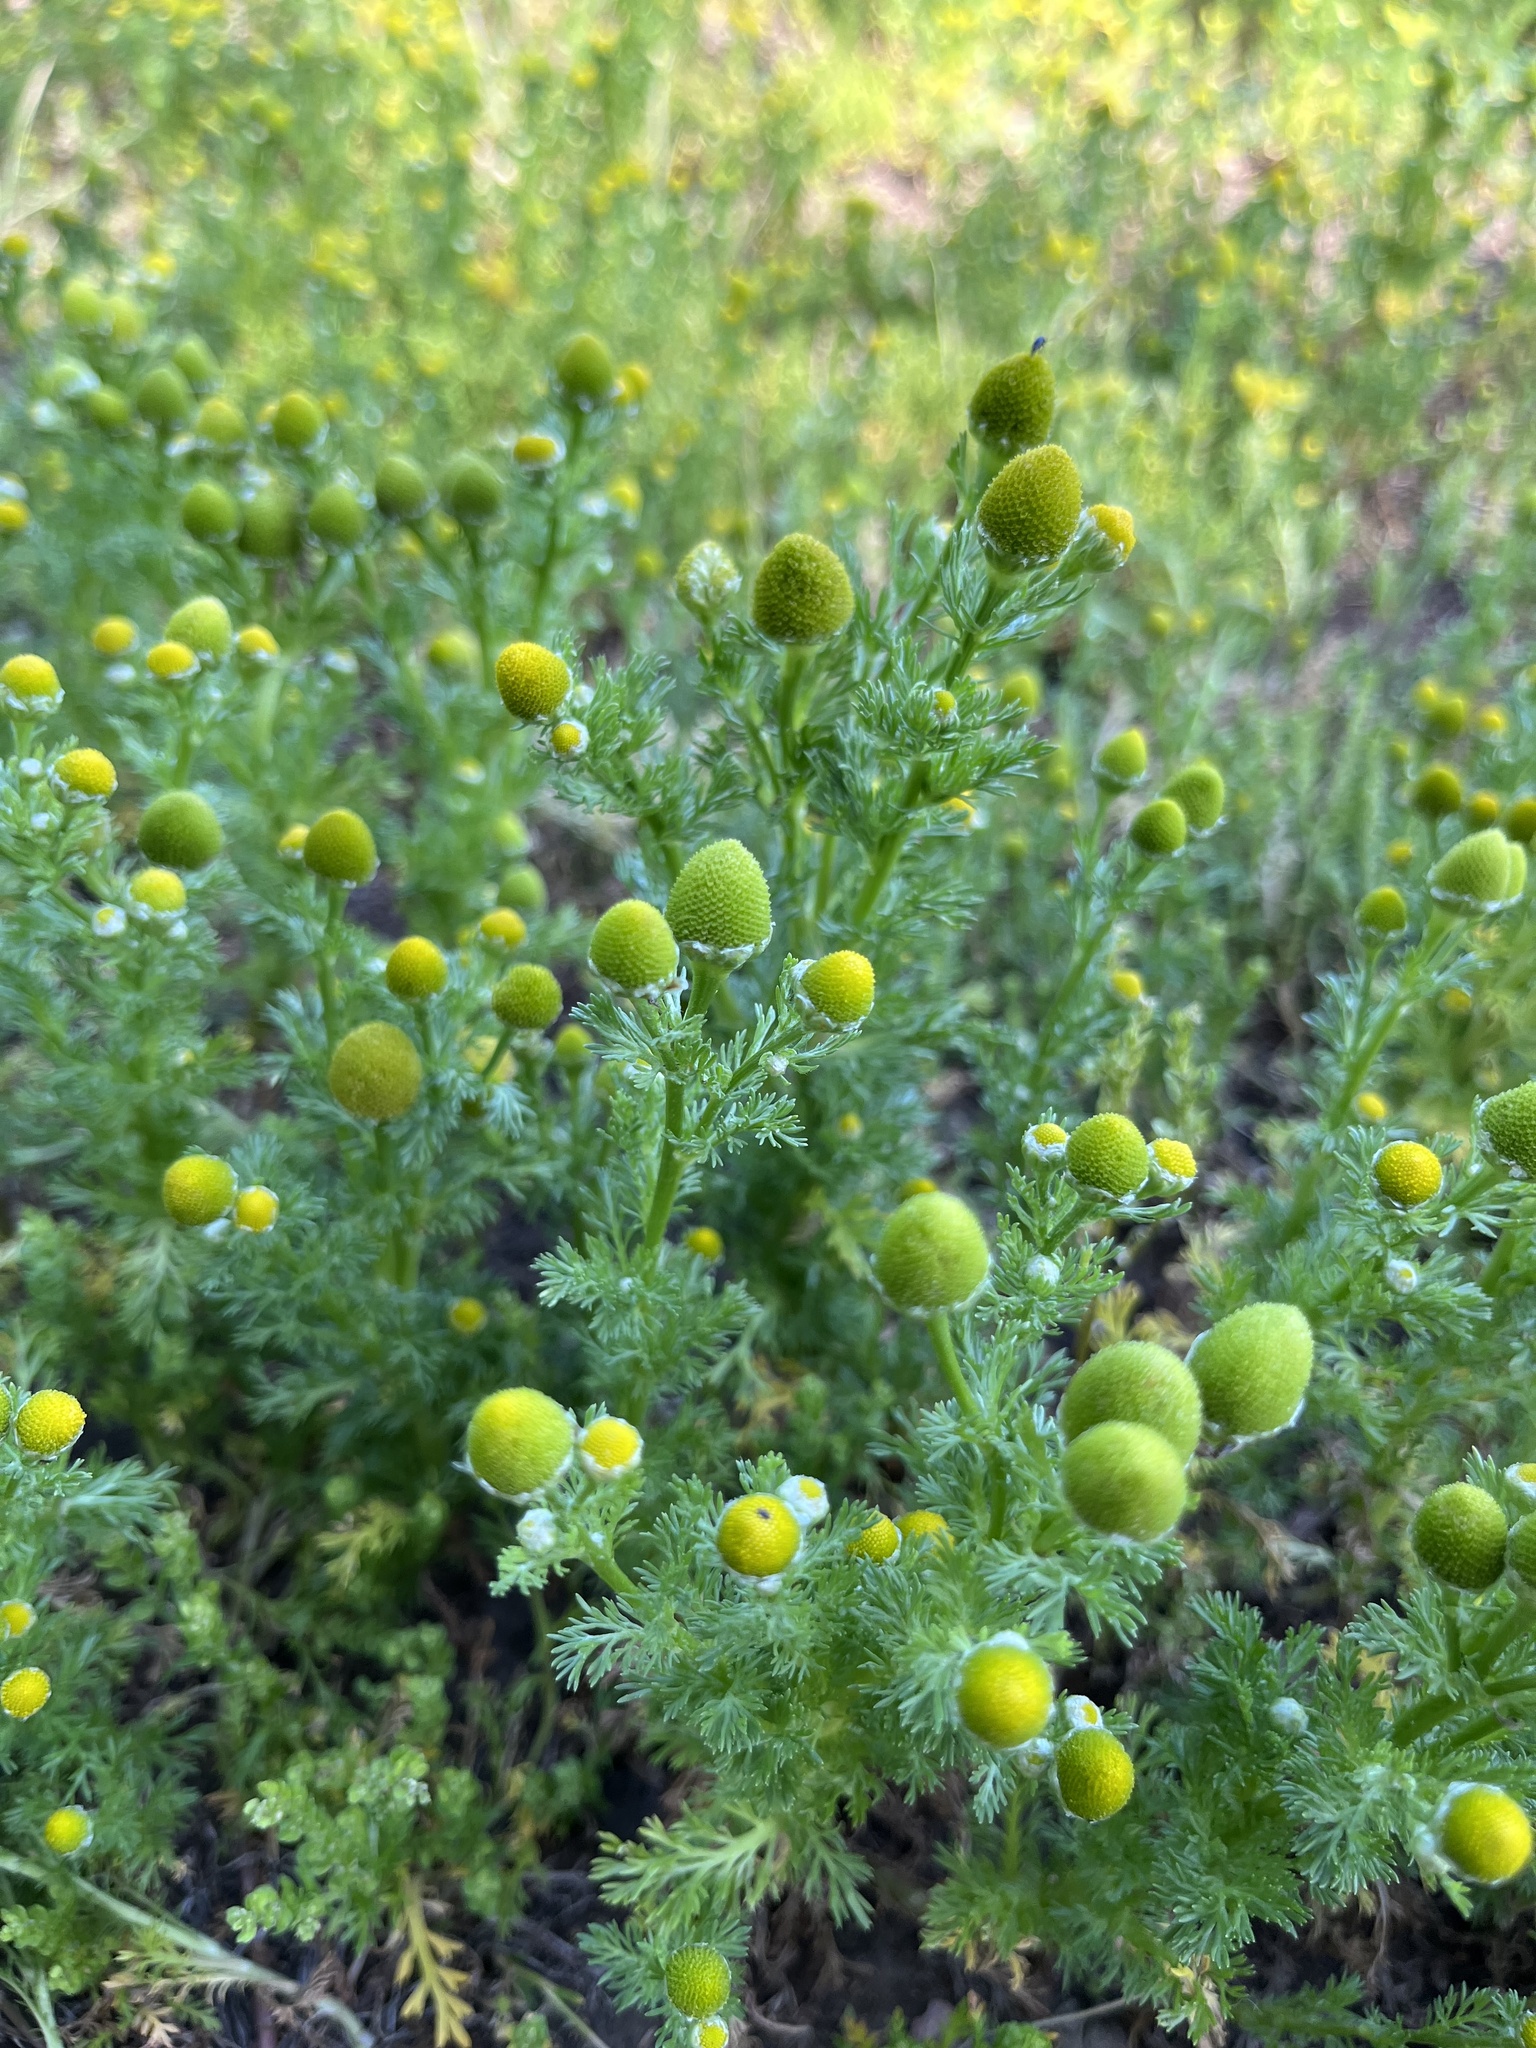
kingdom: Plantae
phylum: Tracheophyta
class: Magnoliopsida
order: Asterales
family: Asteraceae
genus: Matricaria
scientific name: Matricaria discoidea
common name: Disc mayweed
